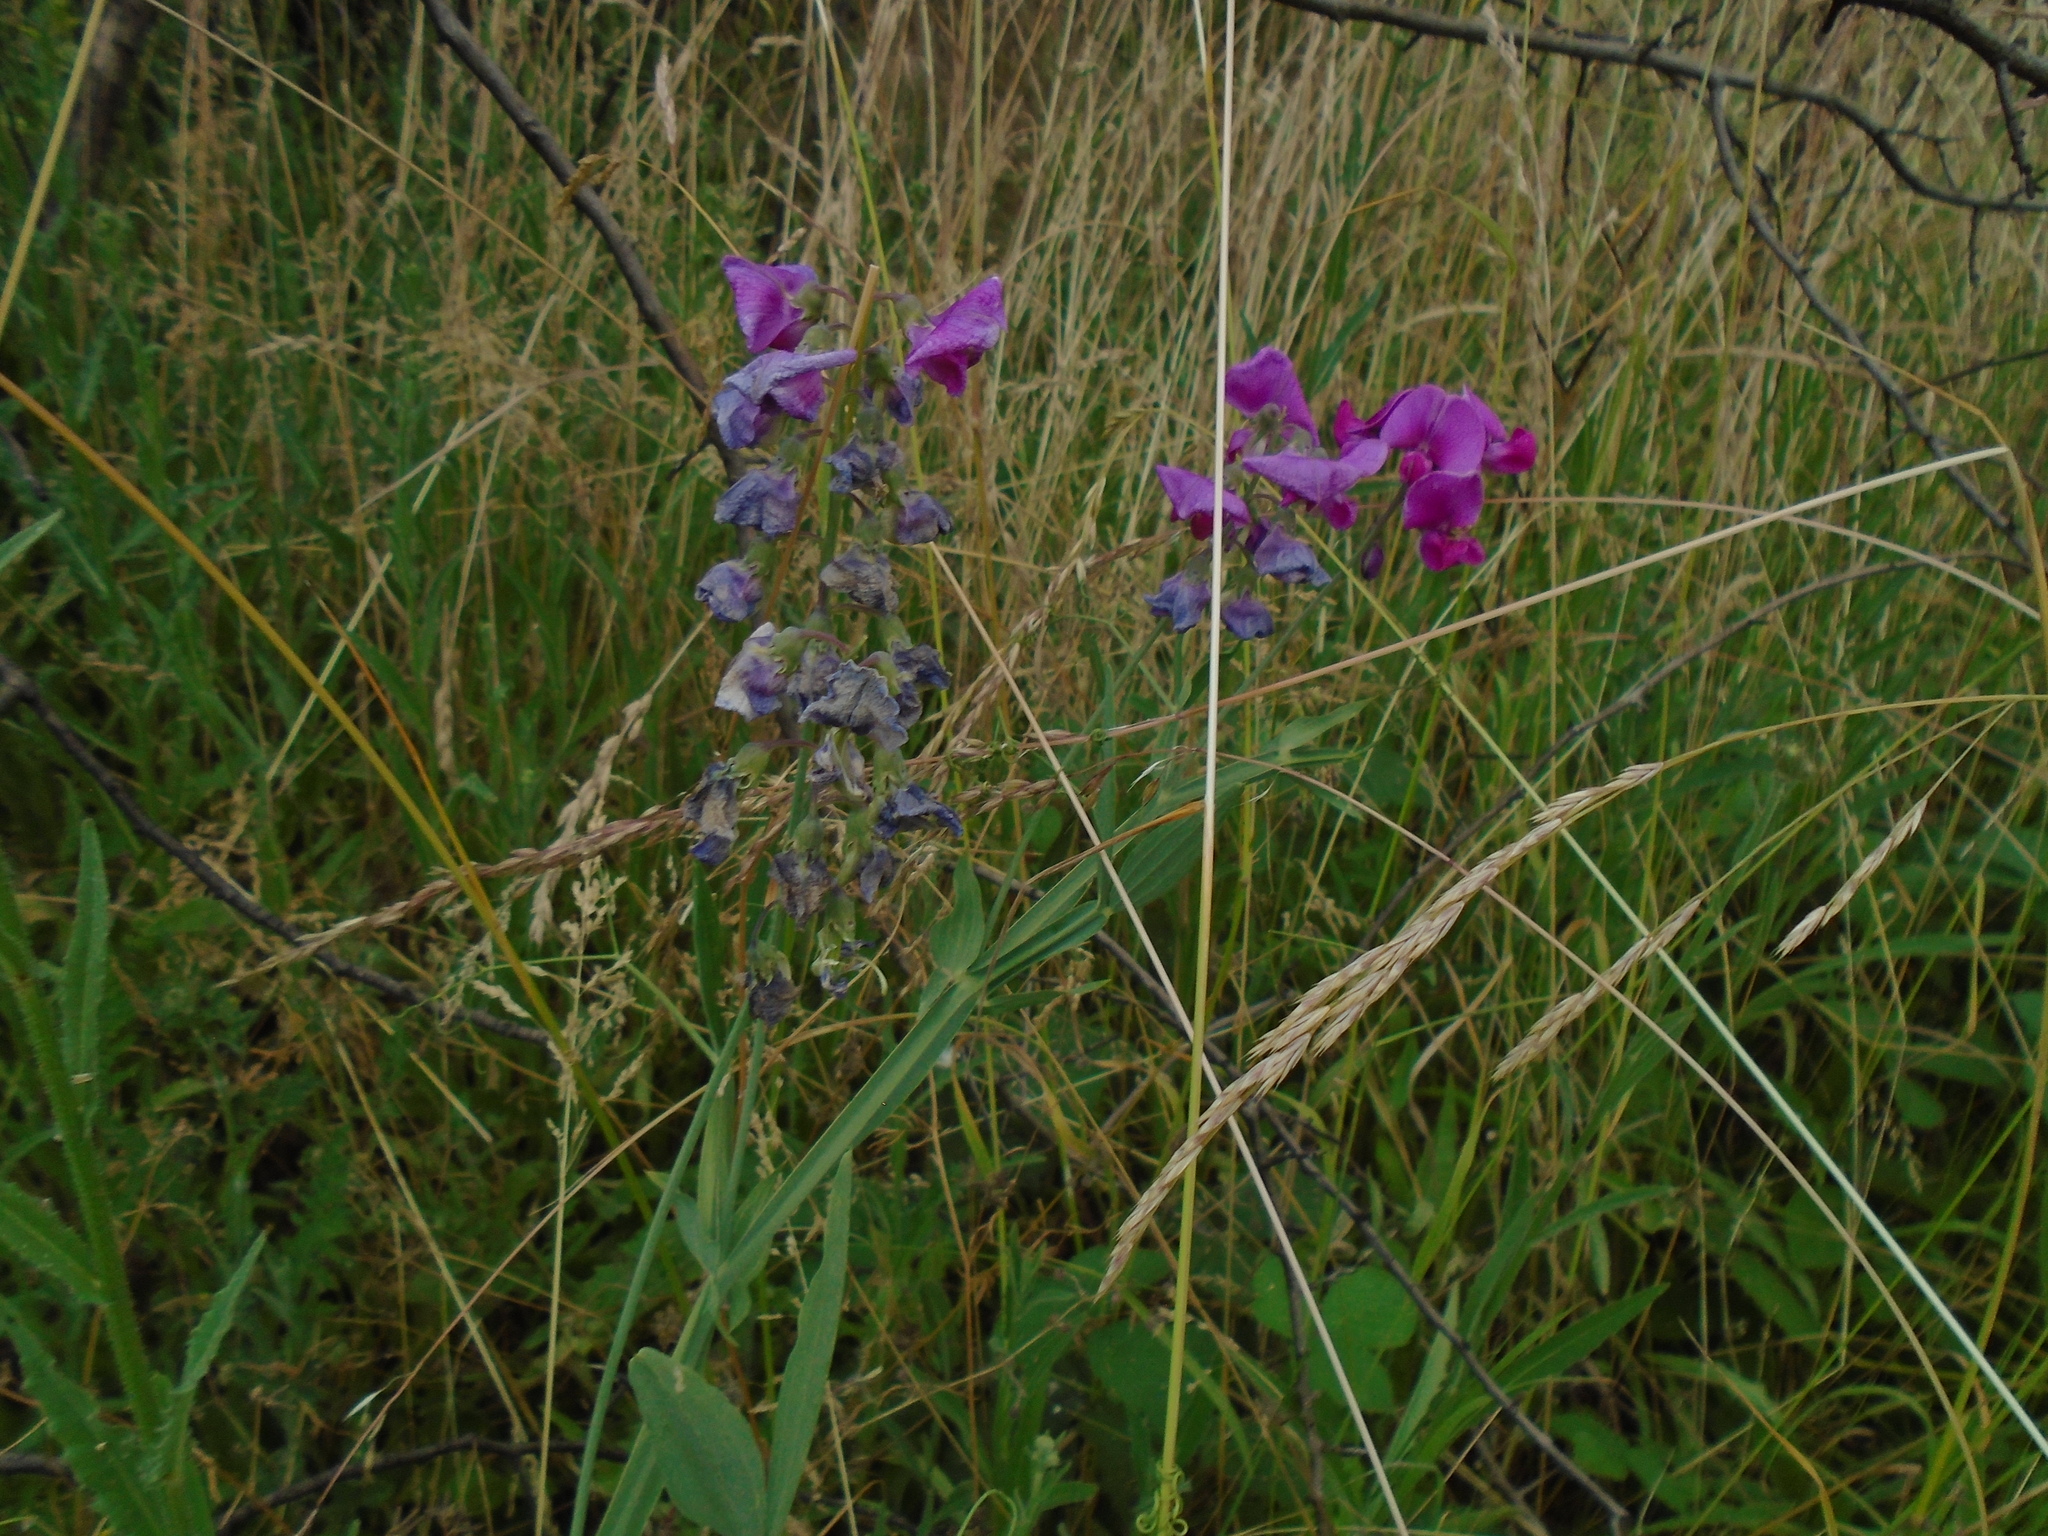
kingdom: Plantae
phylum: Tracheophyta
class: Magnoliopsida
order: Fabales
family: Fabaceae
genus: Lathyrus
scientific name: Lathyrus latifolius
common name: Perennial pea
